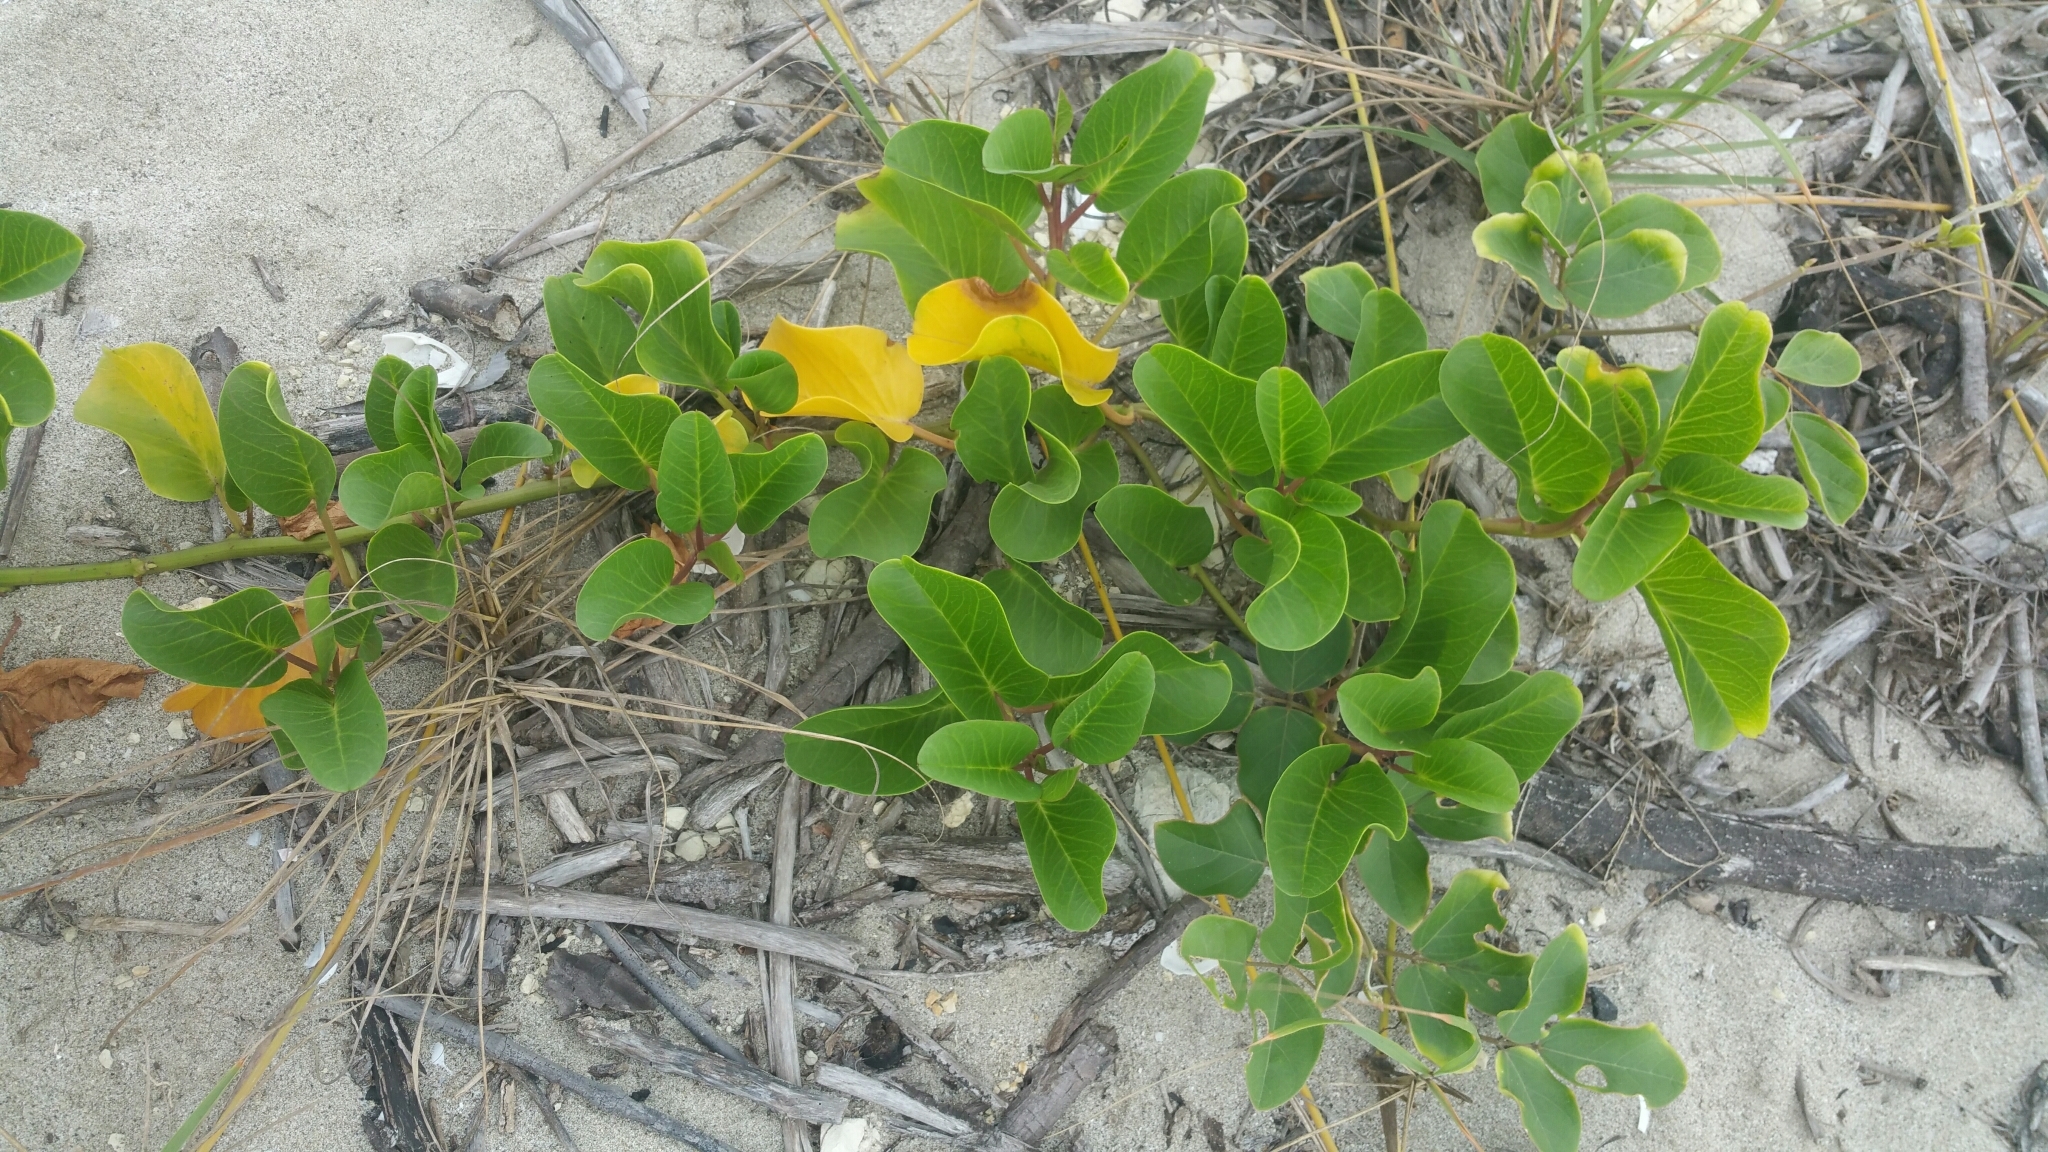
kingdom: Plantae
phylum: Tracheophyta
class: Magnoliopsida
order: Solanales
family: Convolvulaceae
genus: Ipomoea
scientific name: Ipomoea pes-caprae
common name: Beach morning glory
